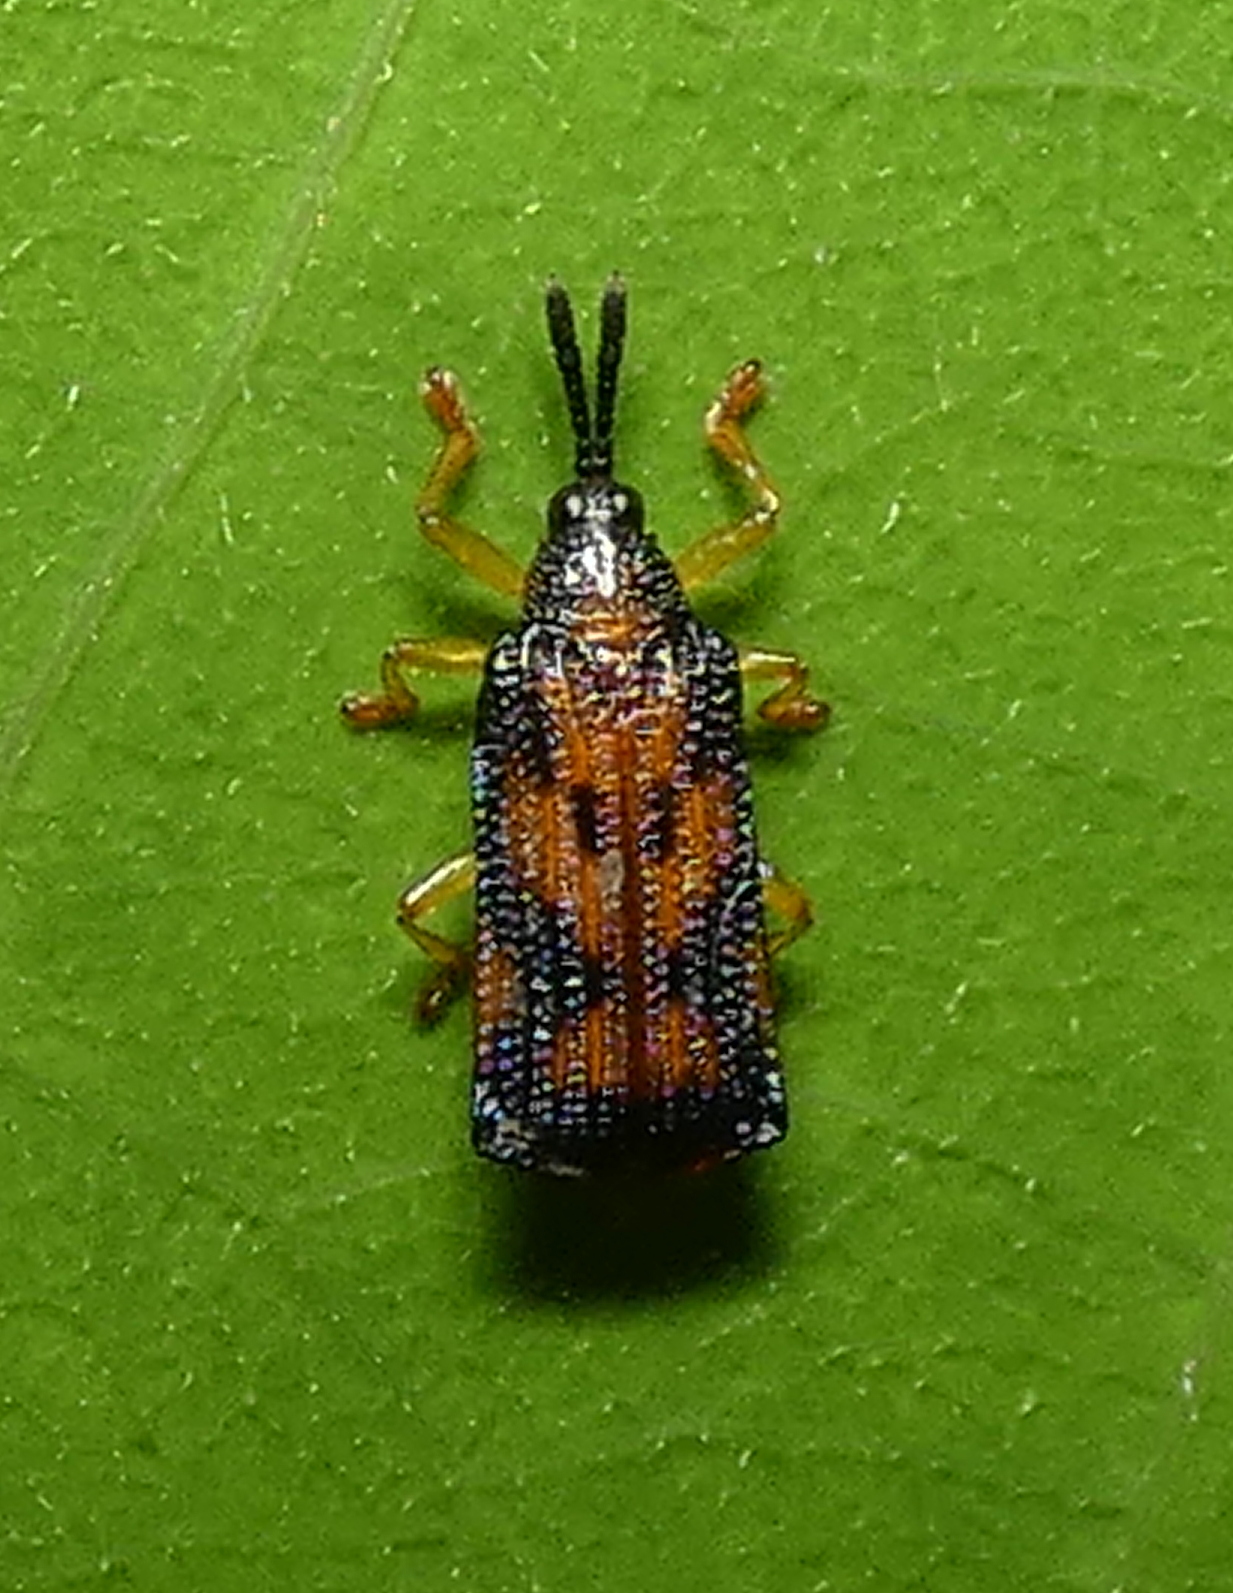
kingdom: Animalia
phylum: Arthropoda
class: Insecta
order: Coleoptera
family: Chrysomelidae
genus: Uroplata
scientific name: Uroplata sublimbata
